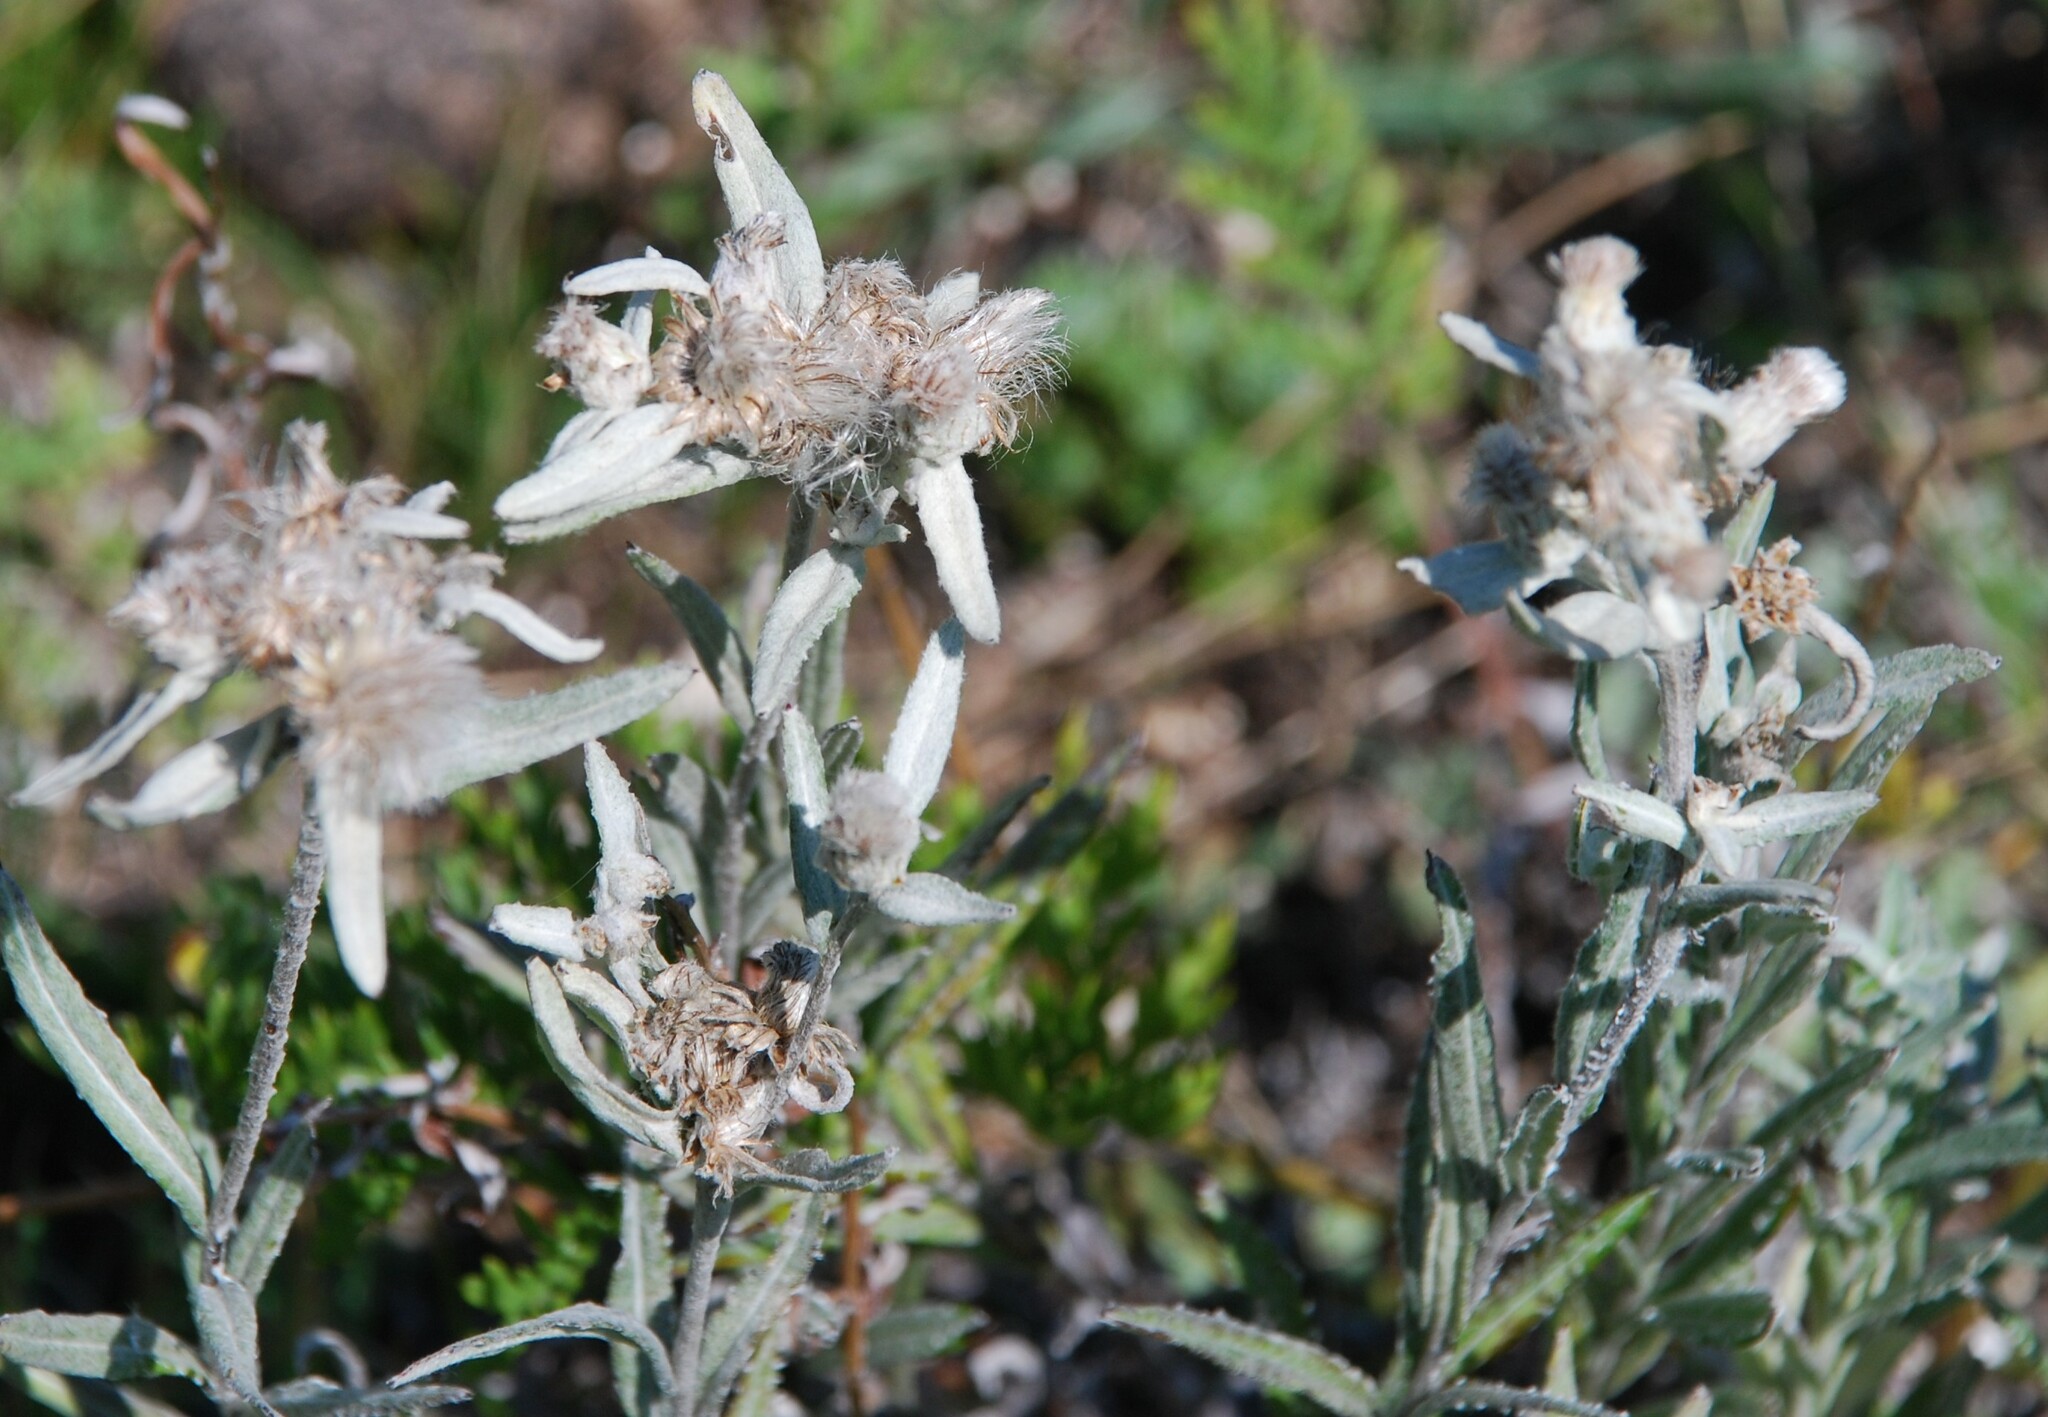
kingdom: Plantae
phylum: Tracheophyta
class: Magnoliopsida
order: Asterales
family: Asteraceae
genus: Leontopodium
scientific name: Leontopodium leontopodioides
